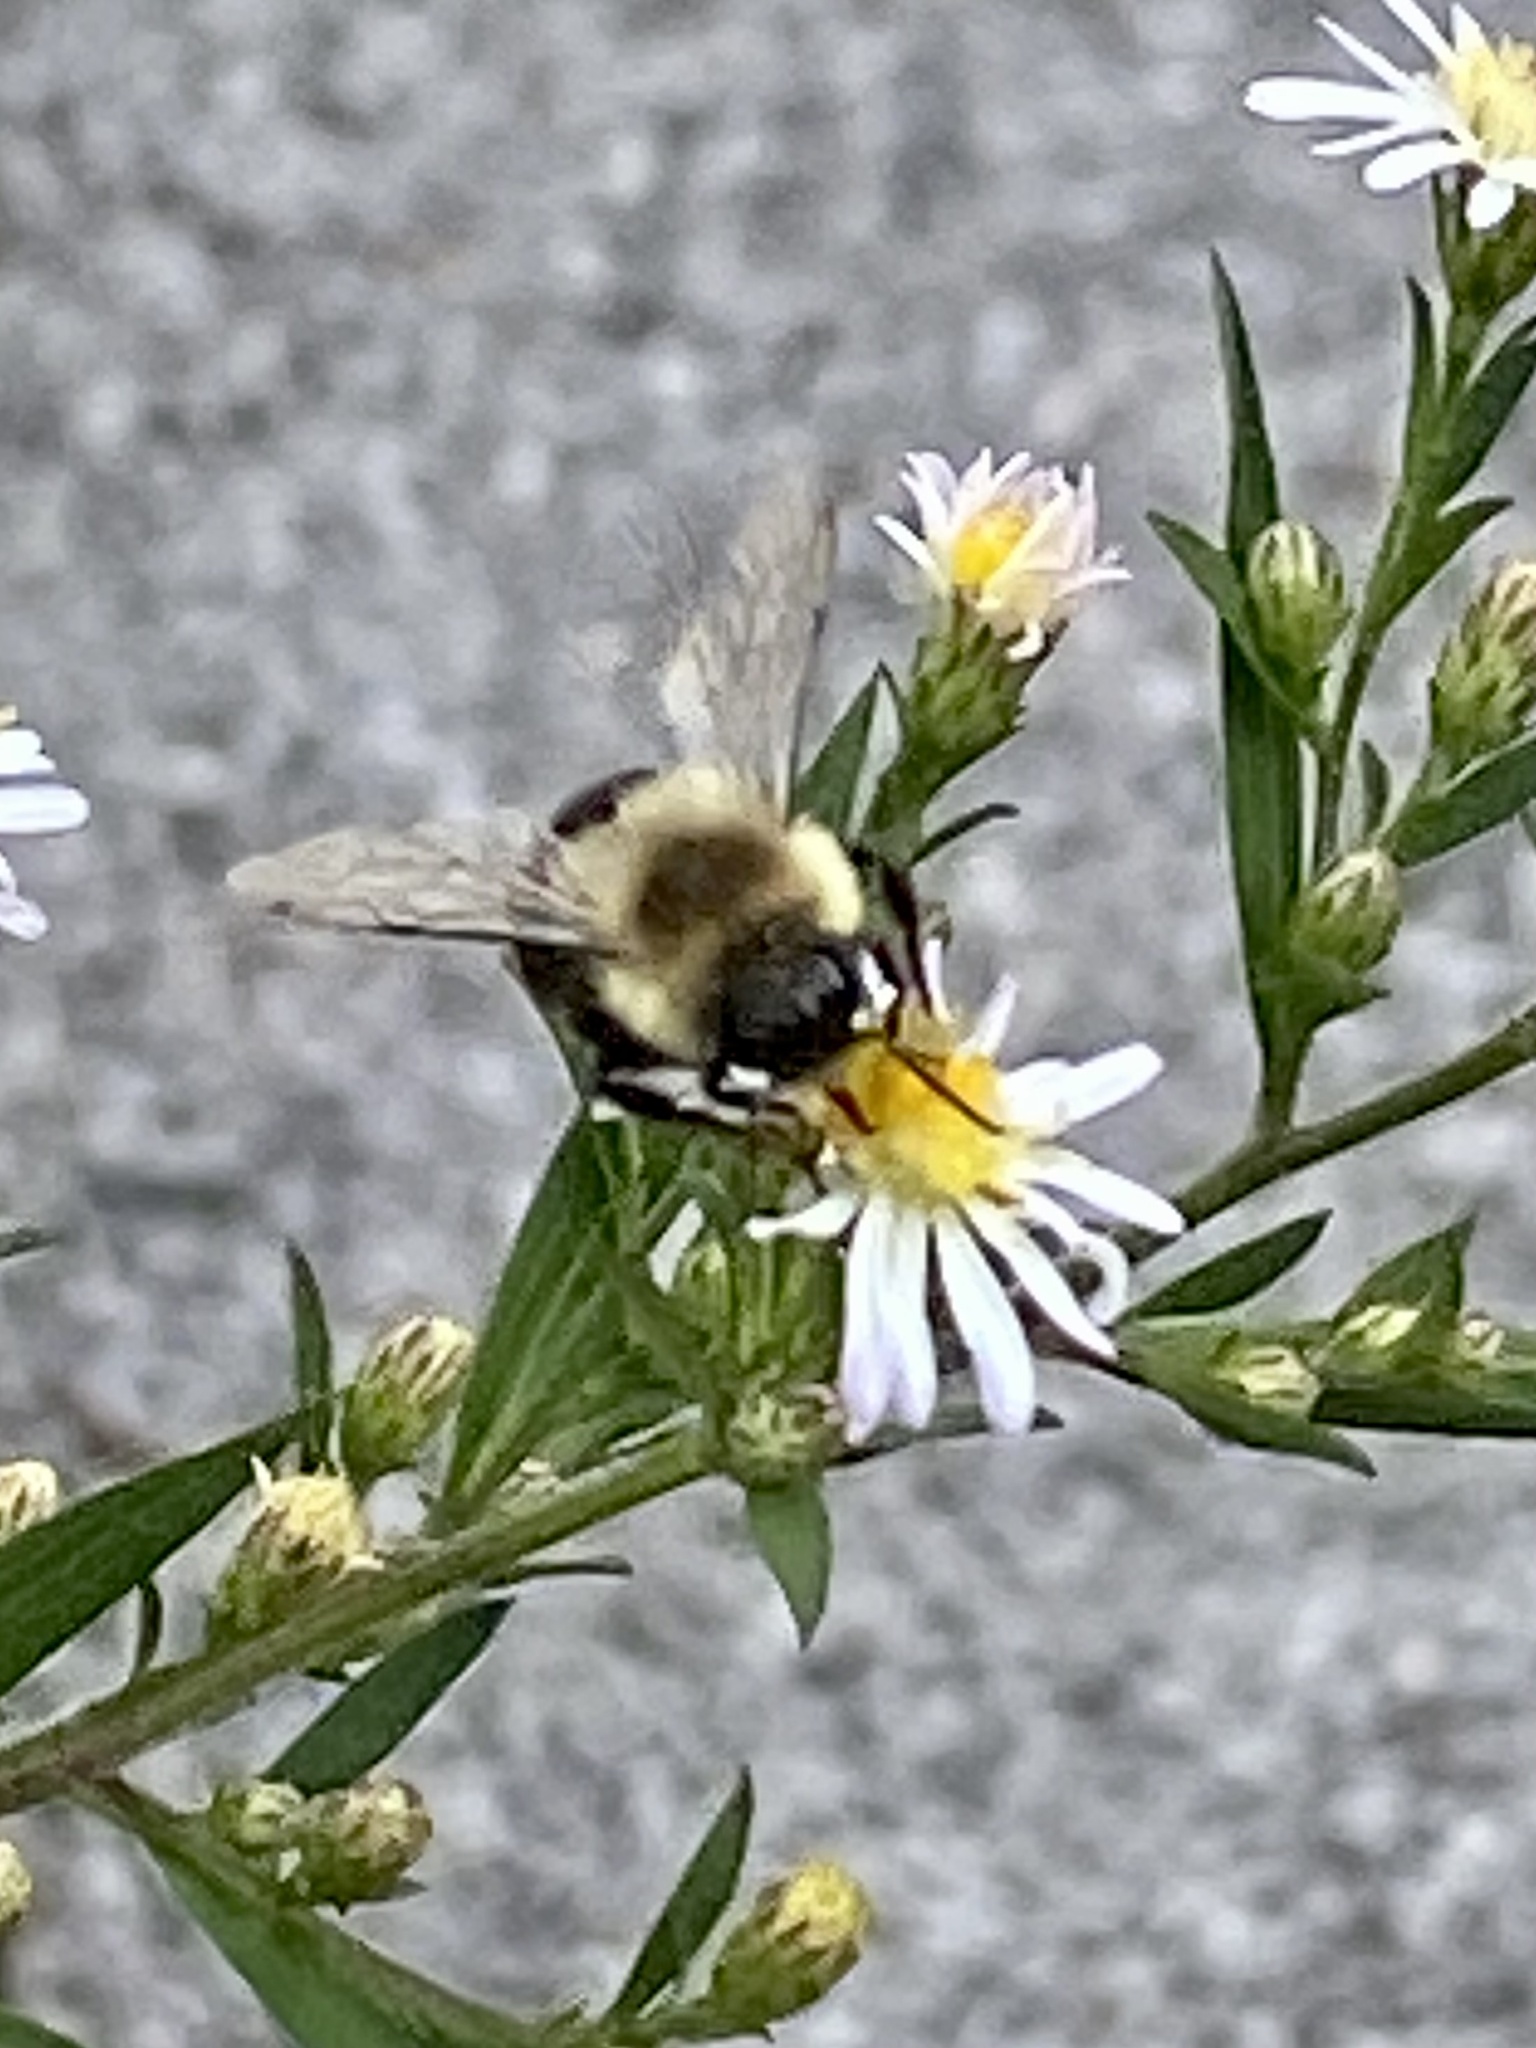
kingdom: Animalia
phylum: Arthropoda
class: Insecta
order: Hymenoptera
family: Apidae
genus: Bombus
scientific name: Bombus impatiens
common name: Common eastern bumble bee
